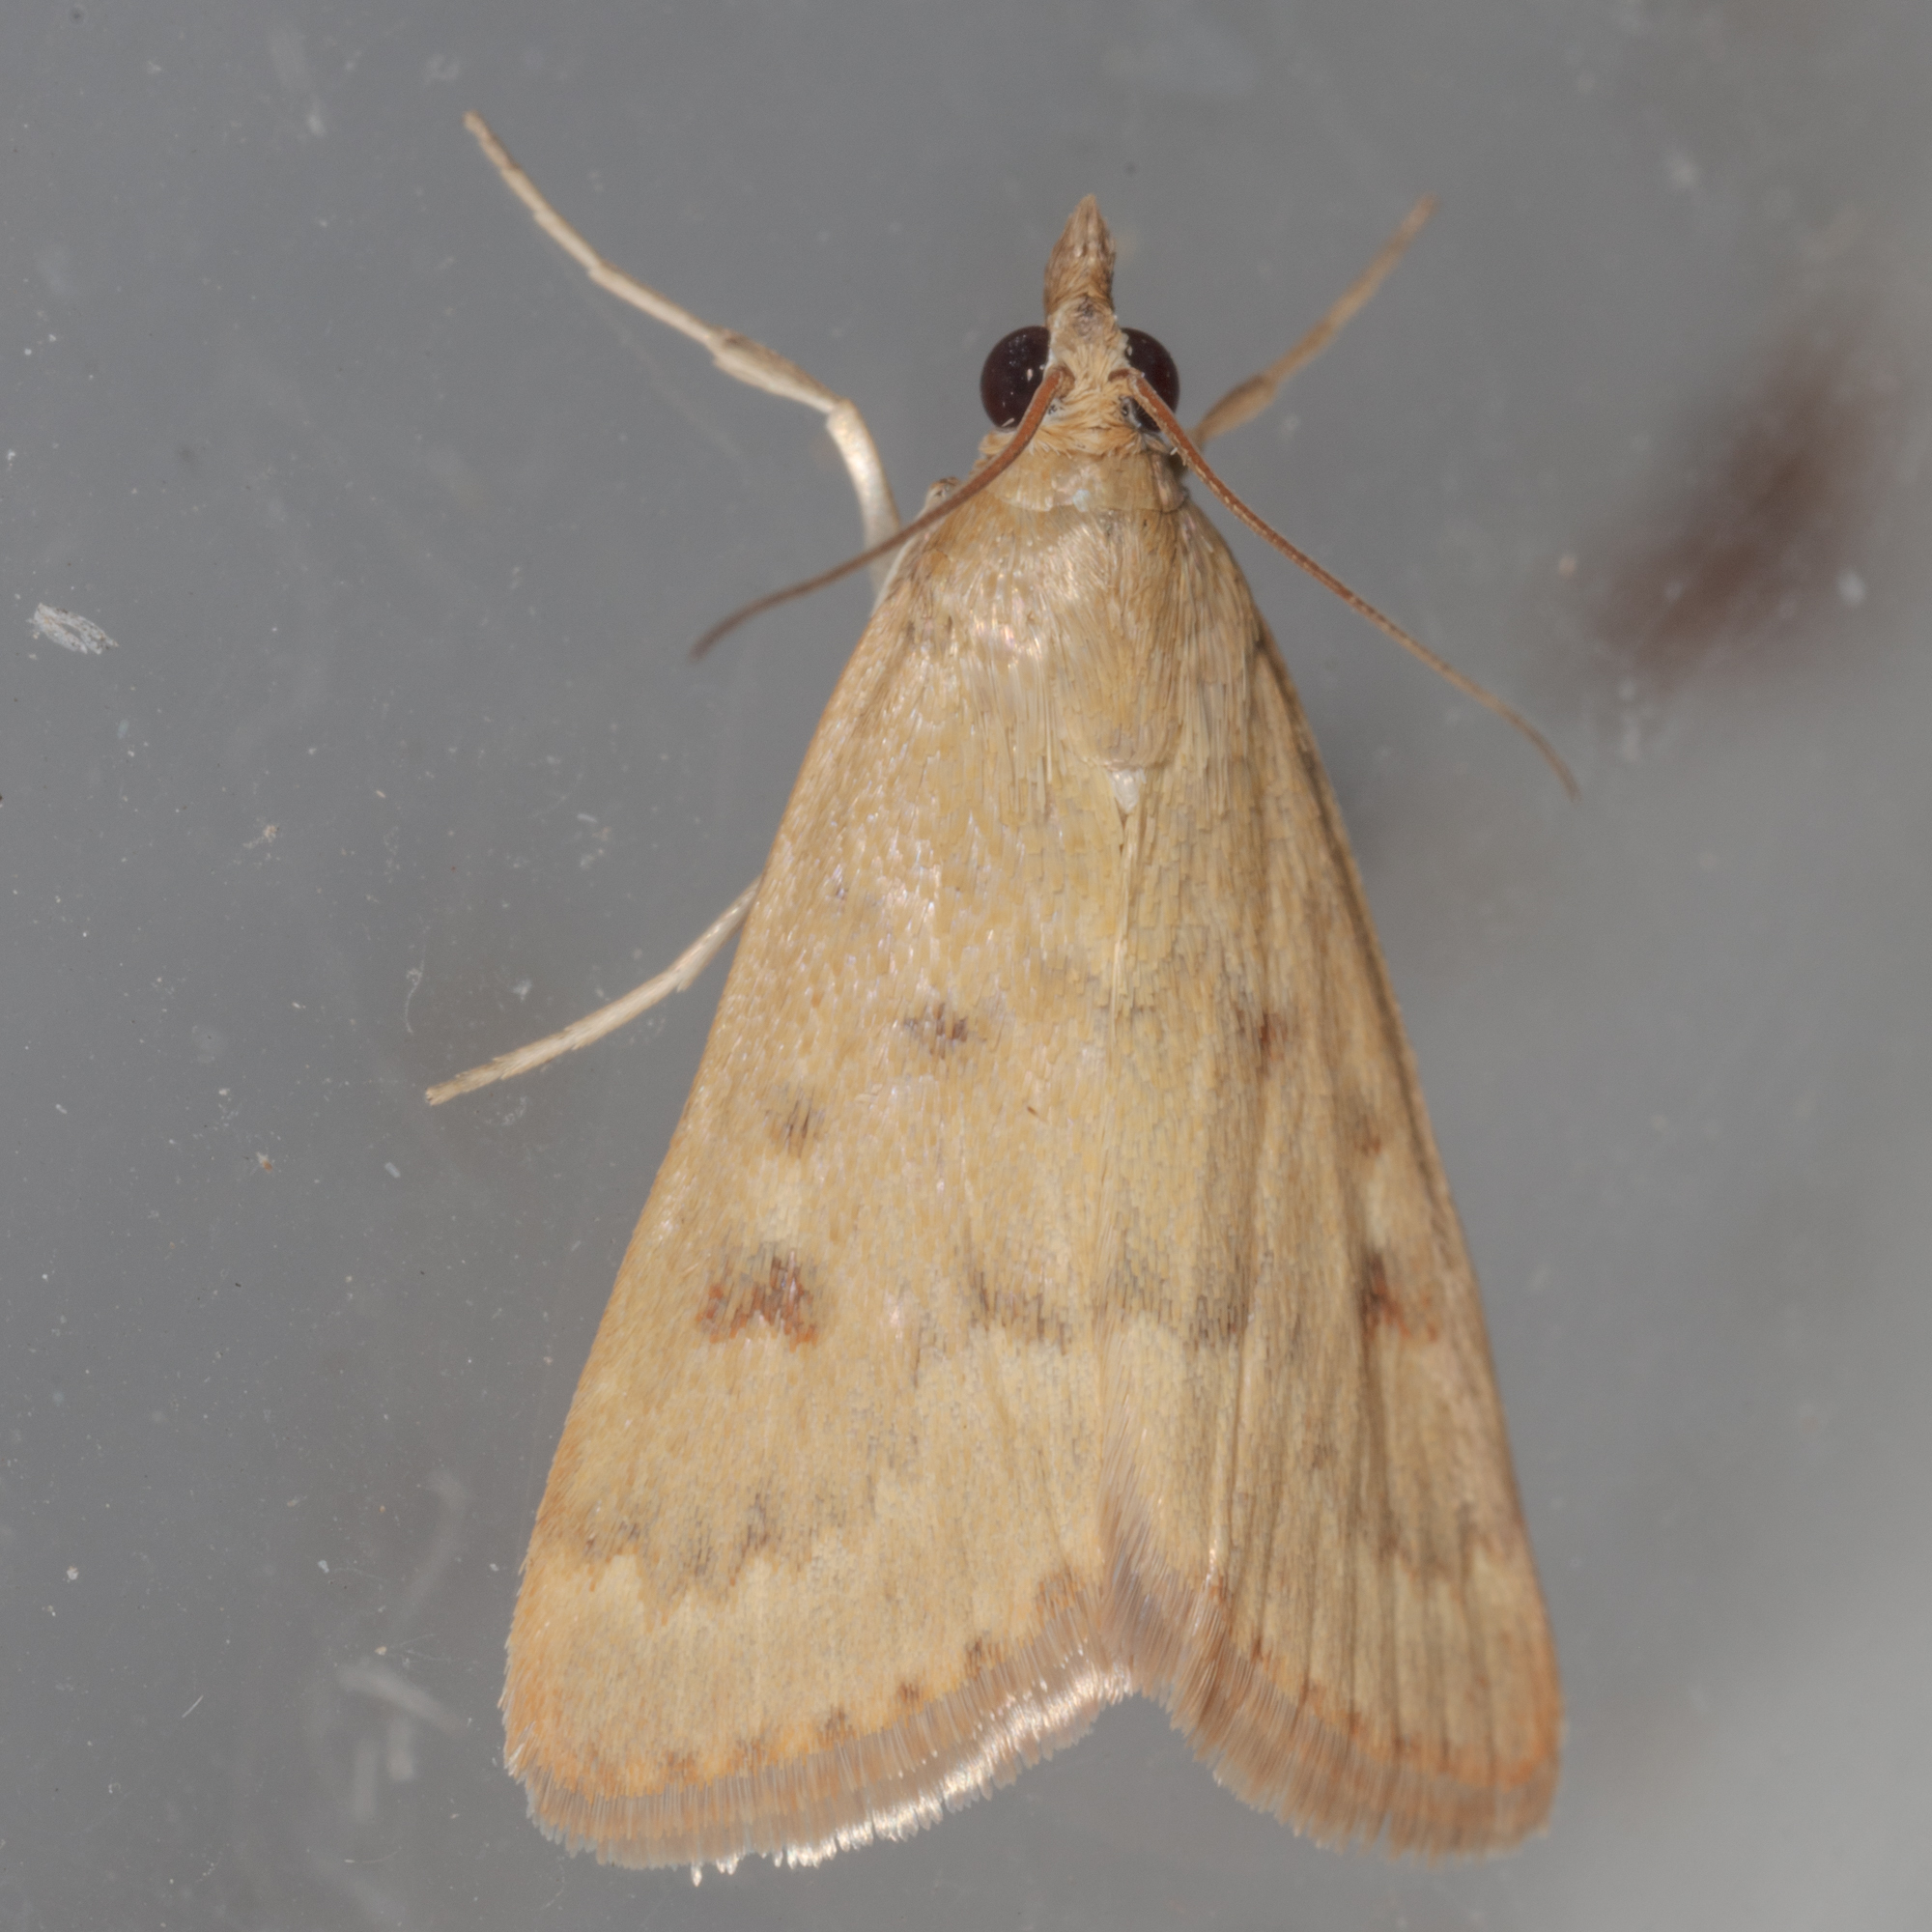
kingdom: Animalia
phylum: Arthropoda
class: Insecta
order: Lepidoptera
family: Crambidae
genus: Achyra
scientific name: Achyra rantalis
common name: Garden webworm
